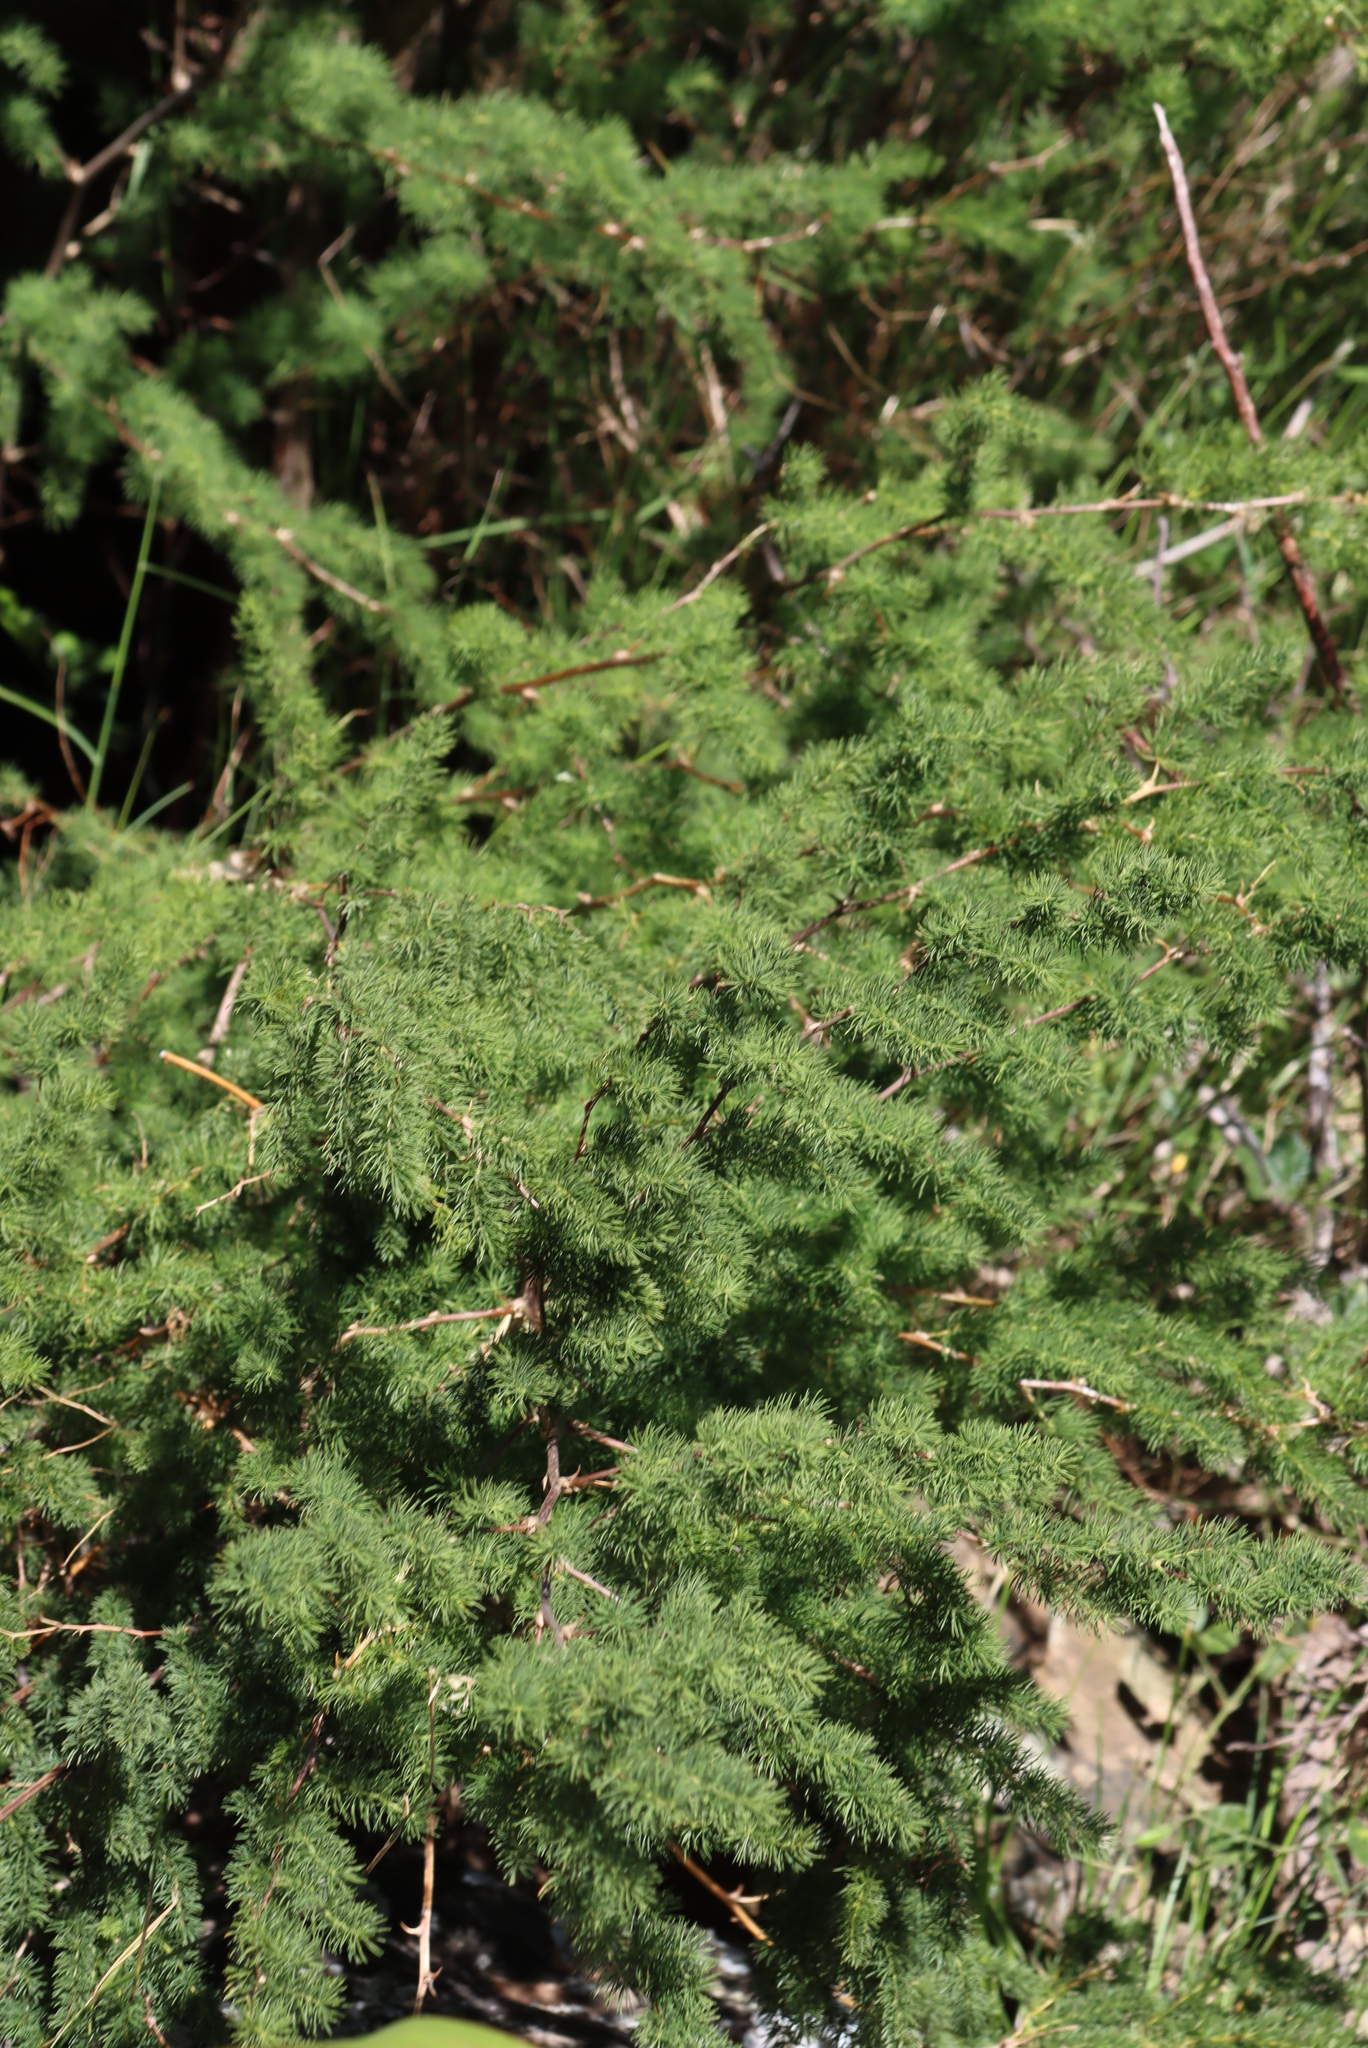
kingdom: Plantae
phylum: Tracheophyta
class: Liliopsida
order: Asparagales
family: Asparagaceae
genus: Asparagus
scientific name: Asparagus rubicundus
